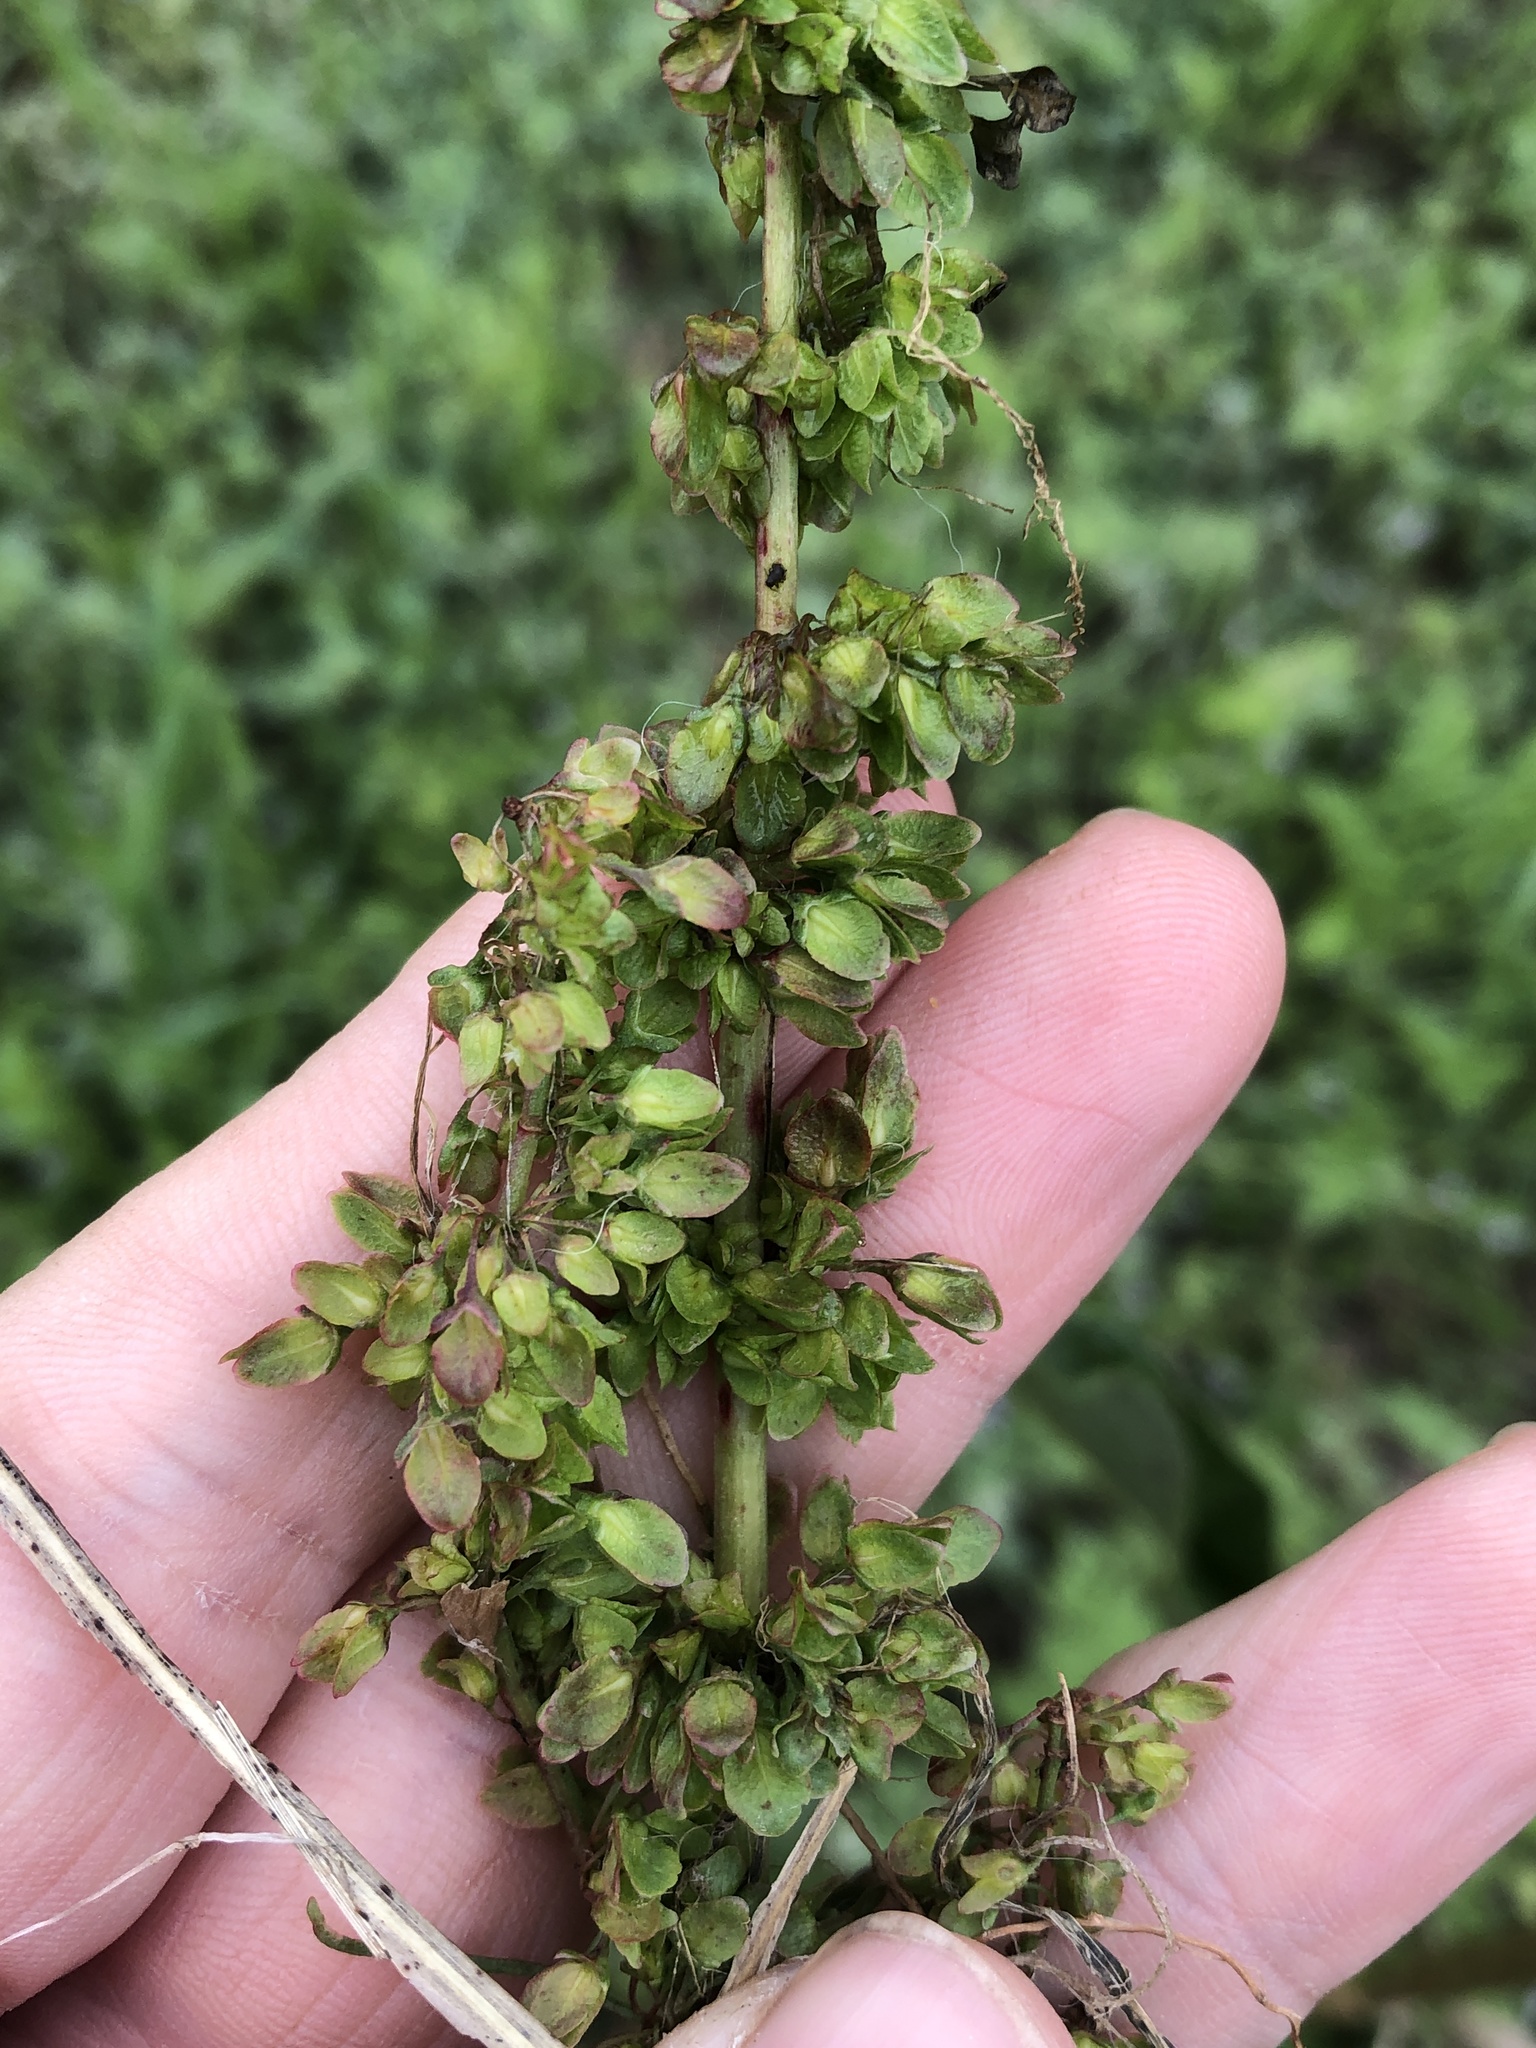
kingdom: Plantae
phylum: Tracheophyta
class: Magnoliopsida
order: Caryophyllales
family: Polygonaceae
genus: Rumex
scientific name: Rumex crispus
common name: Curled dock
